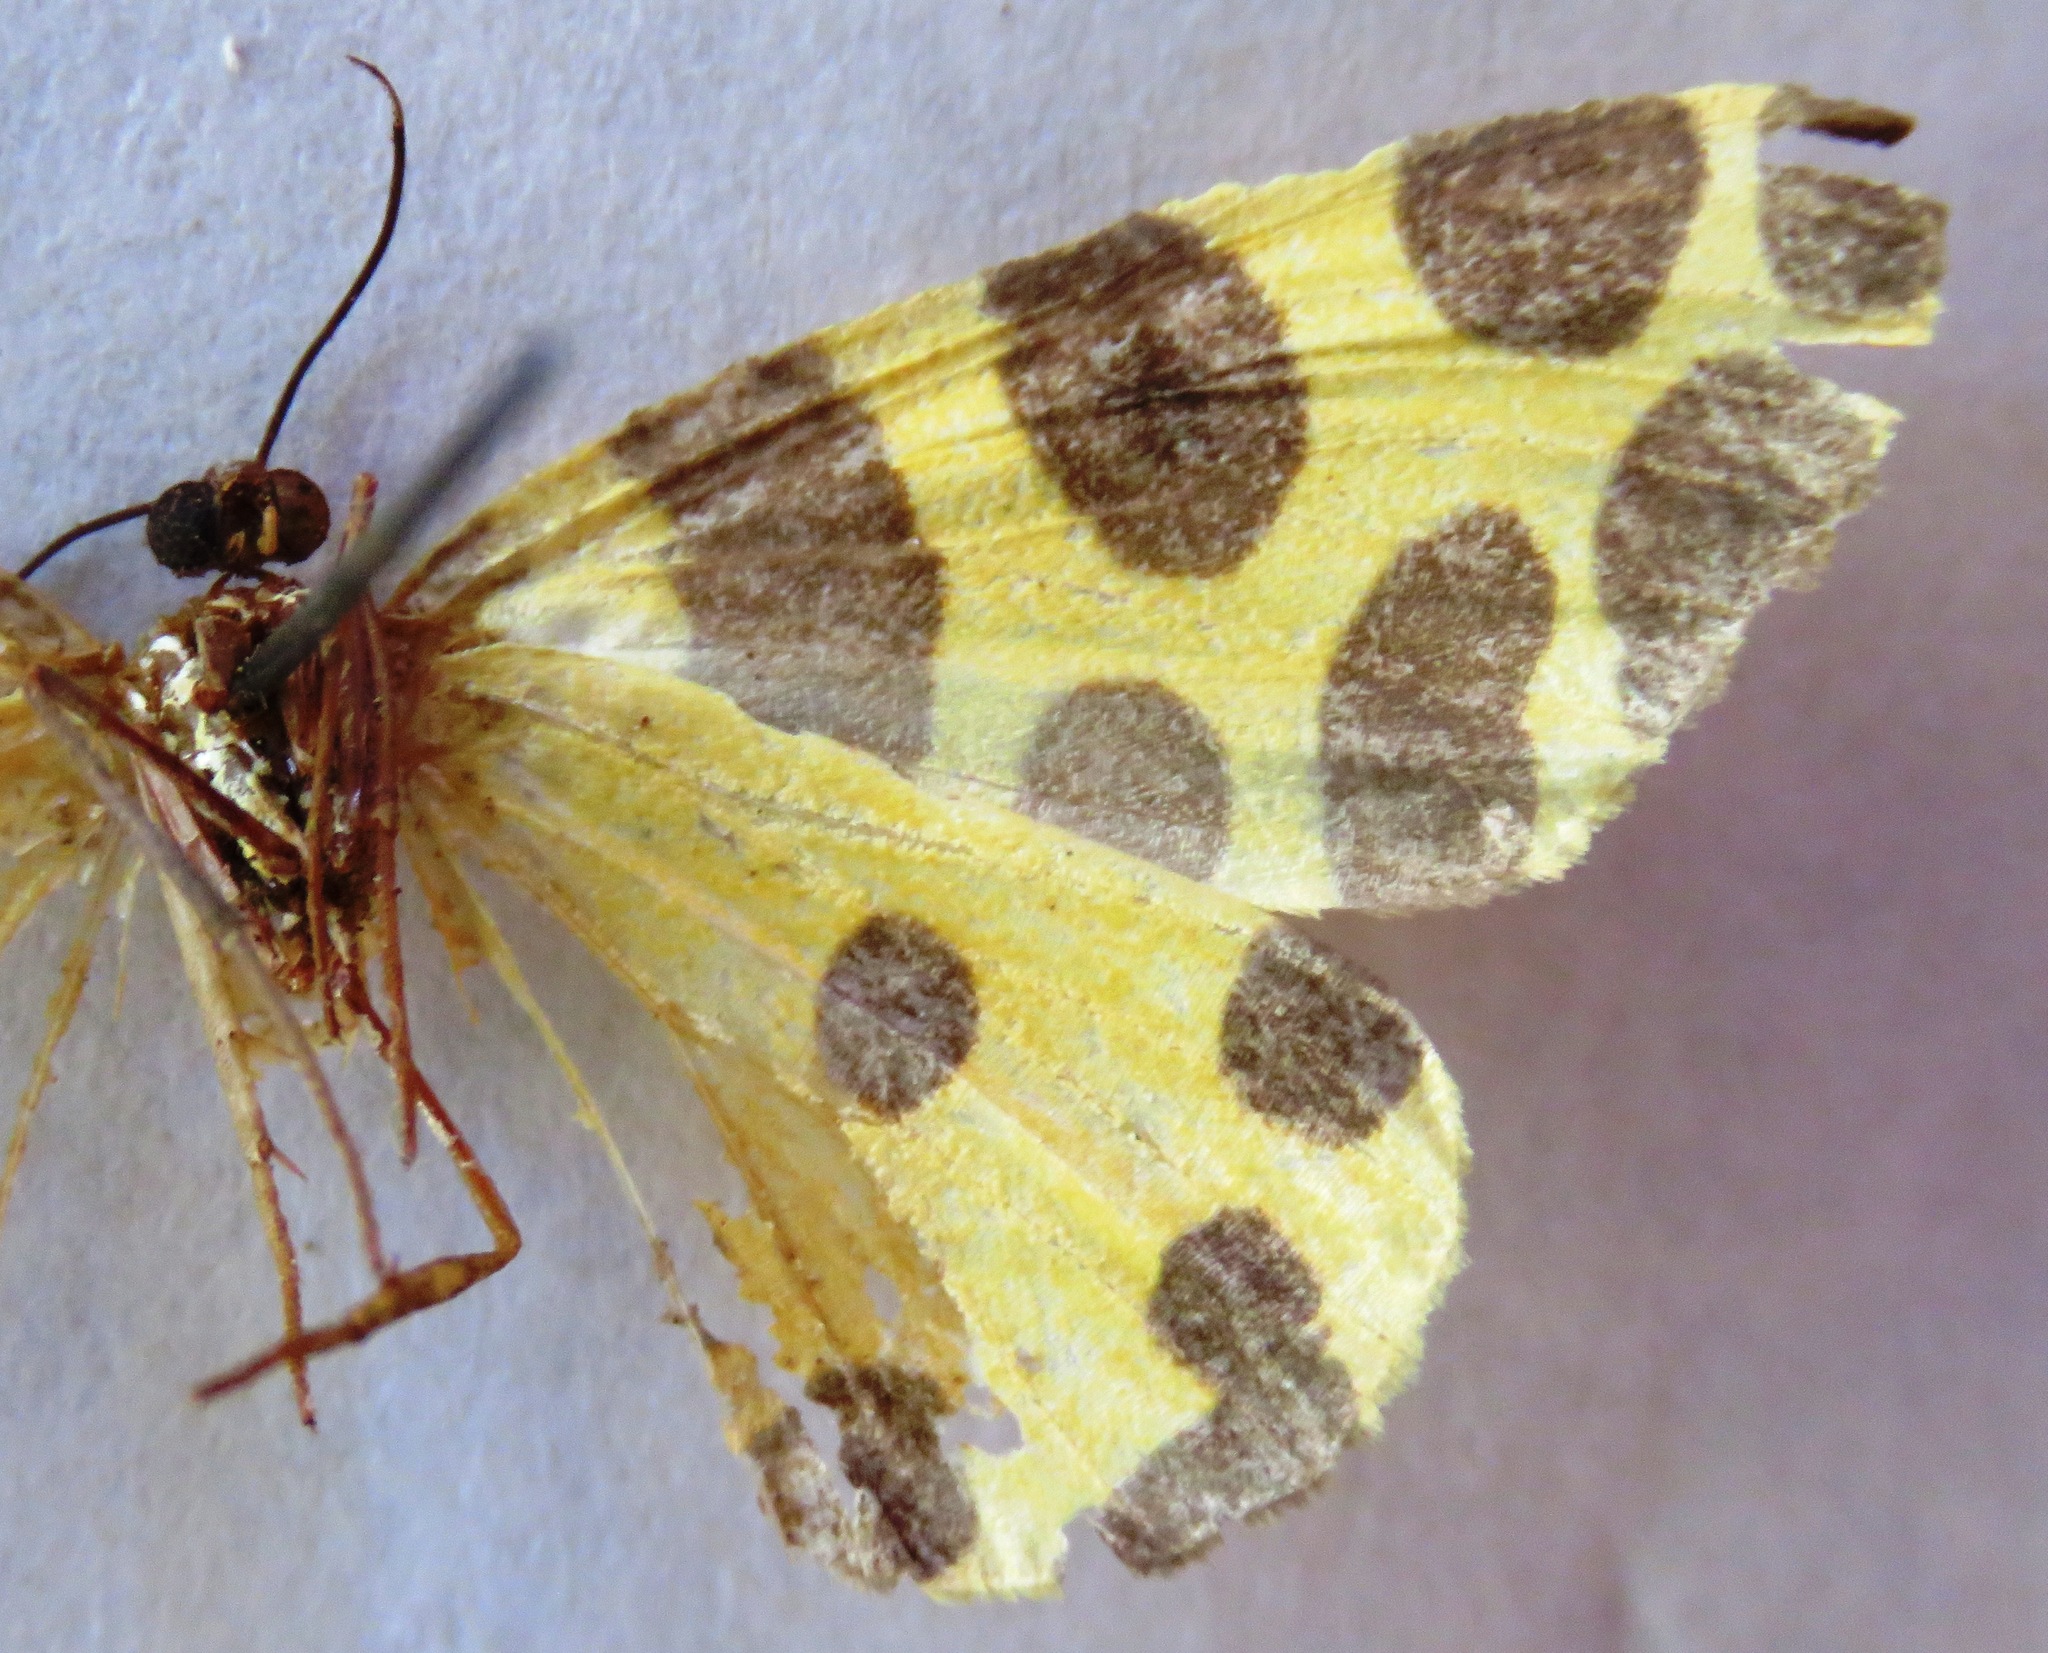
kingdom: Animalia
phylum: Arthropoda
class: Insecta
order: Lepidoptera
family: Geometridae
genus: Pantherodes
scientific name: Pantherodes unciaria
